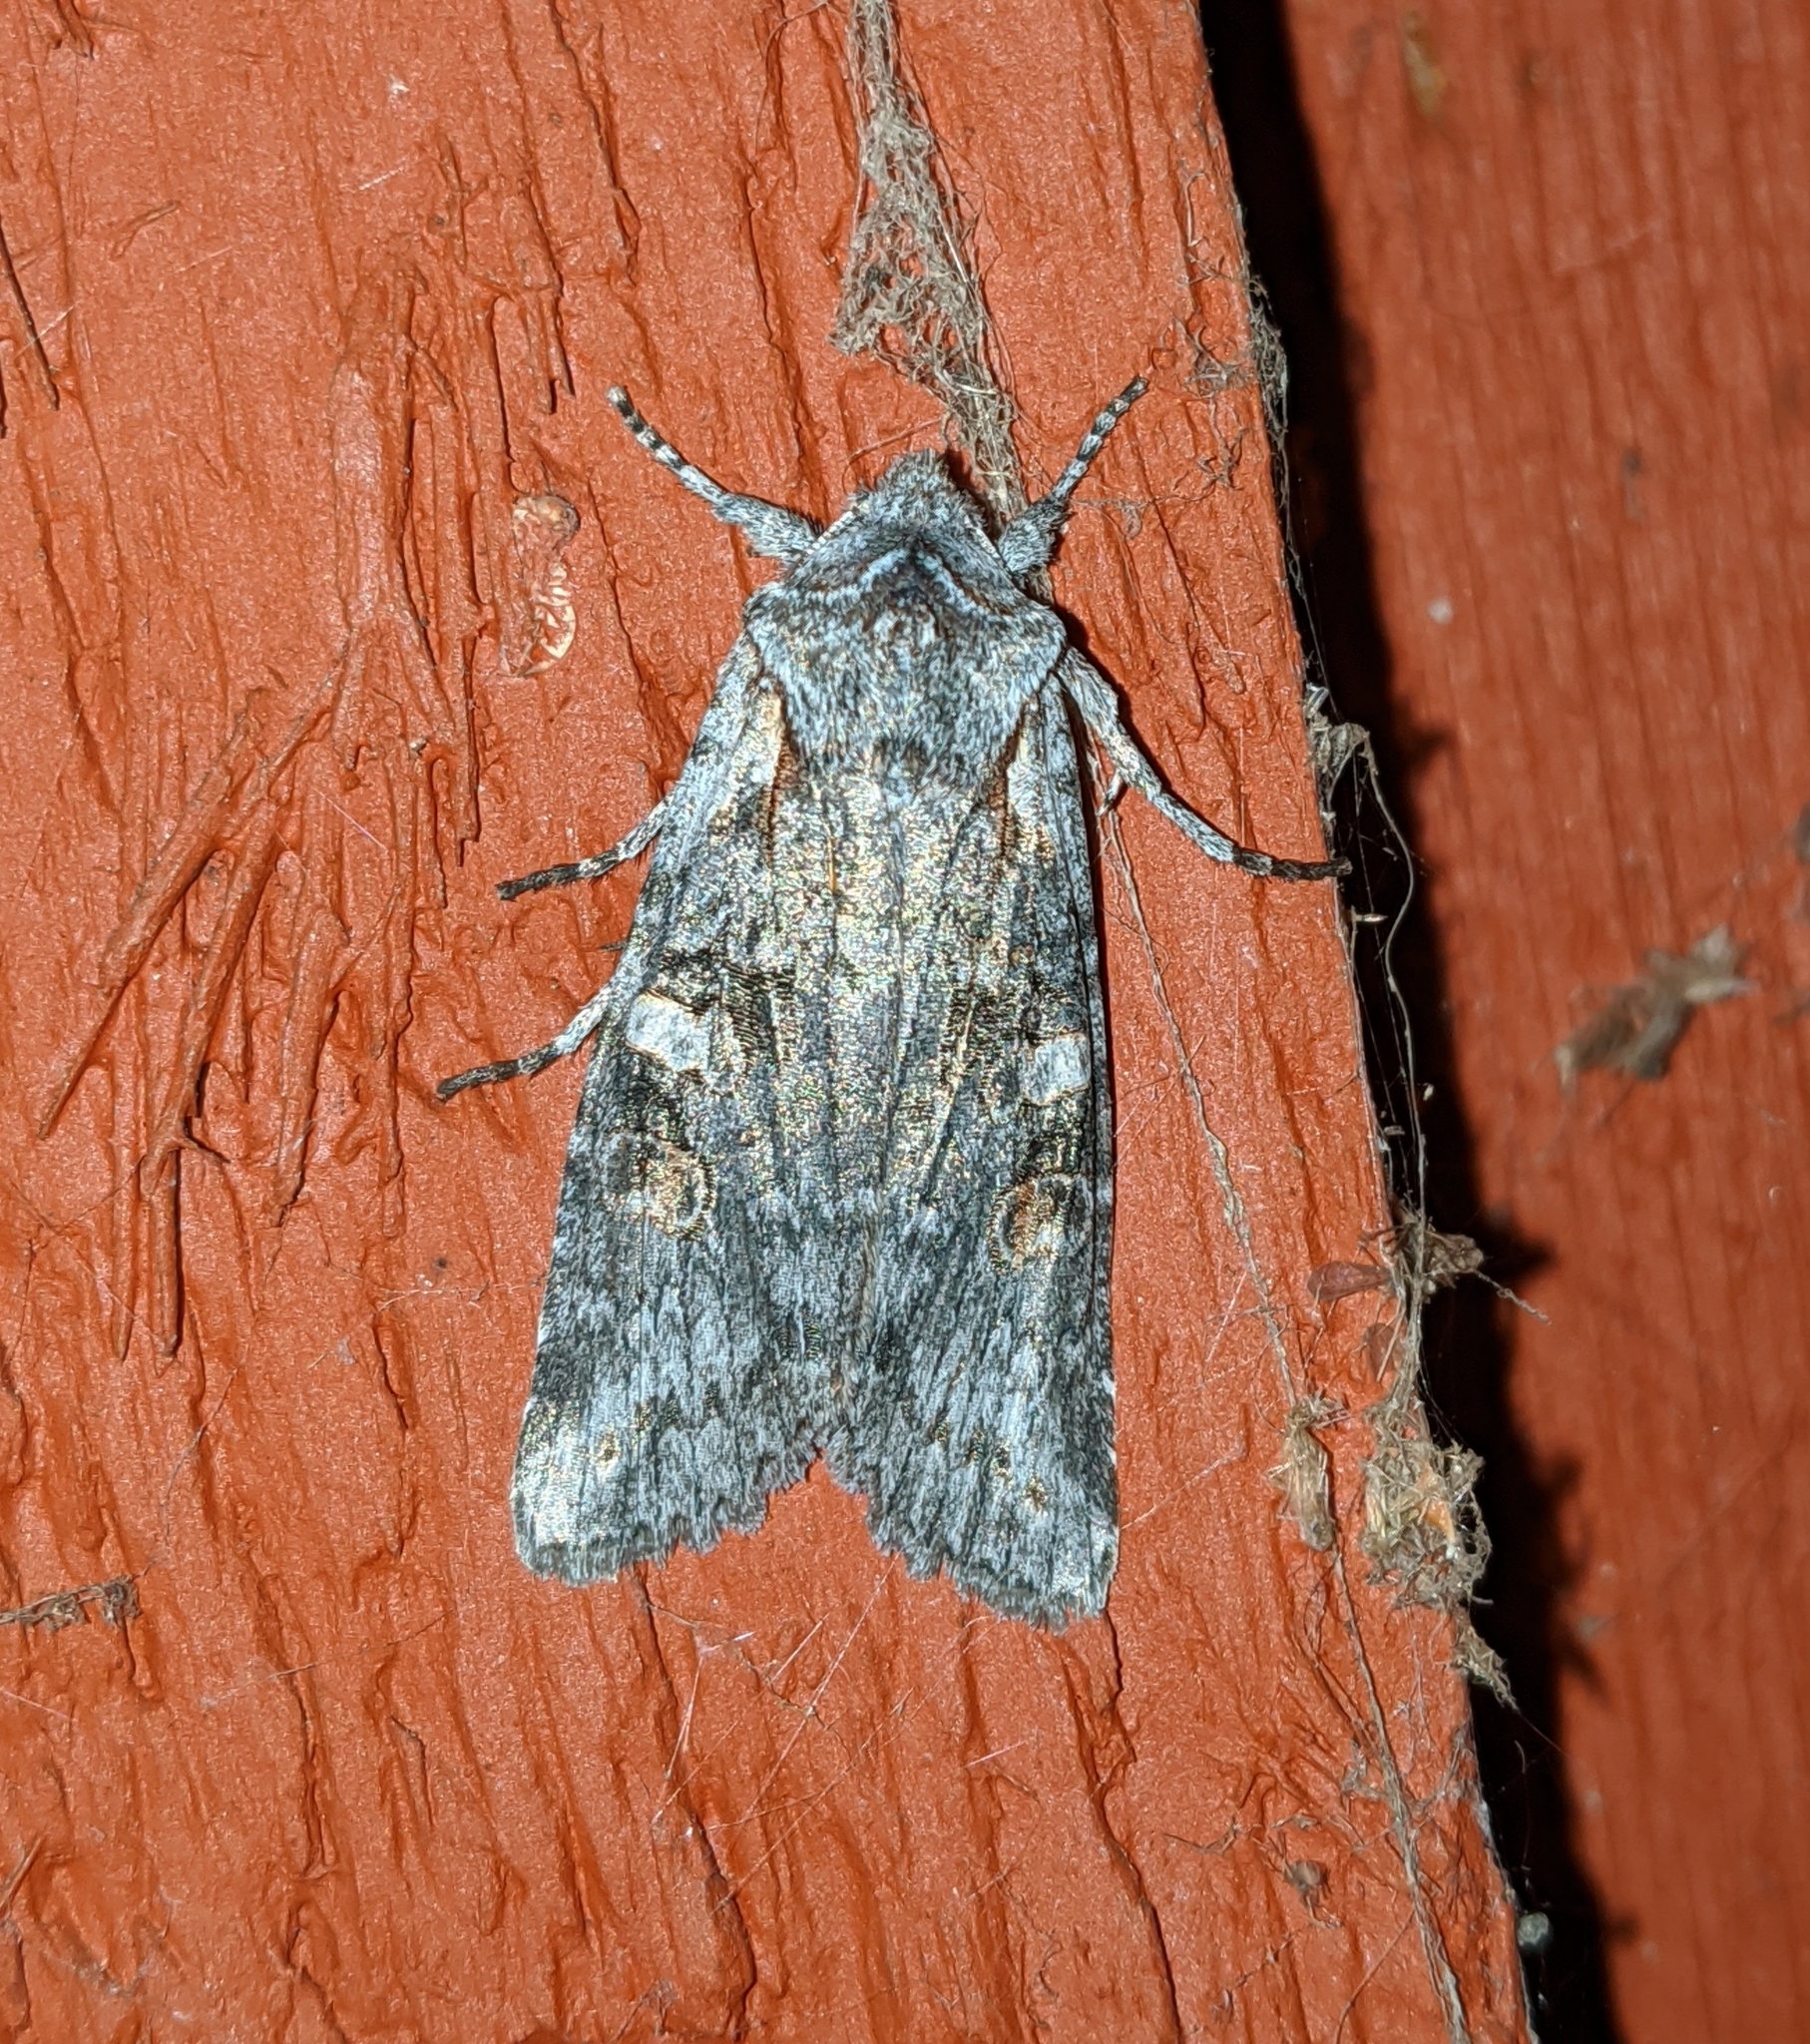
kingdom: Animalia
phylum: Arthropoda
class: Insecta
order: Lepidoptera
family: Noctuidae
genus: Lithophane
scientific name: Lithophane pertorrida
